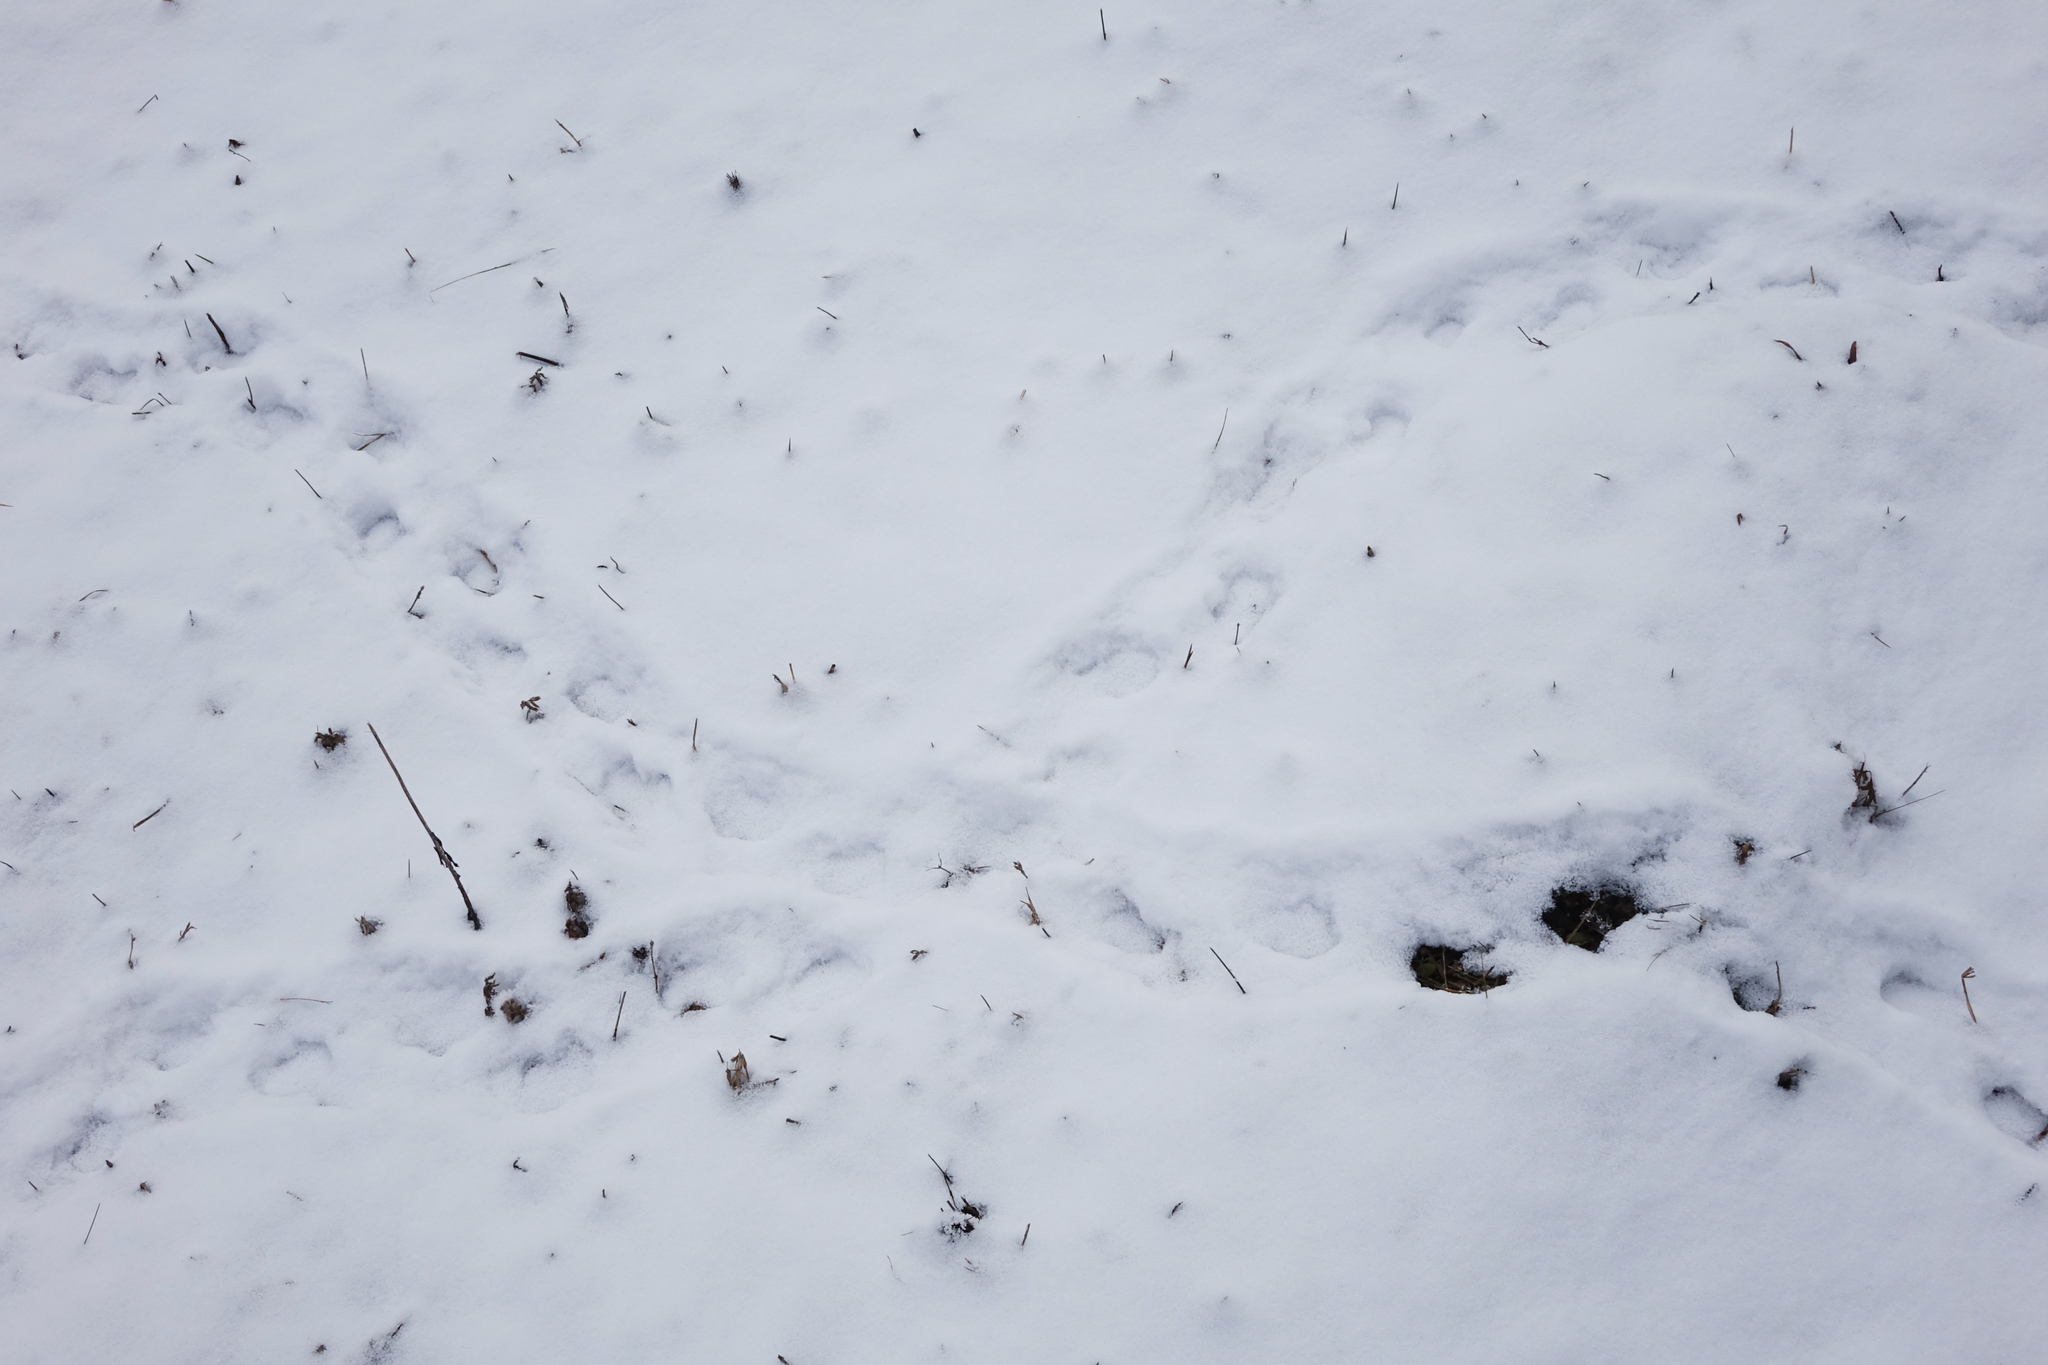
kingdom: Animalia
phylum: Chordata
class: Mammalia
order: Rodentia
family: Cricetidae
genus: Cricetus
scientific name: Cricetus cricetus
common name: Common hamster
